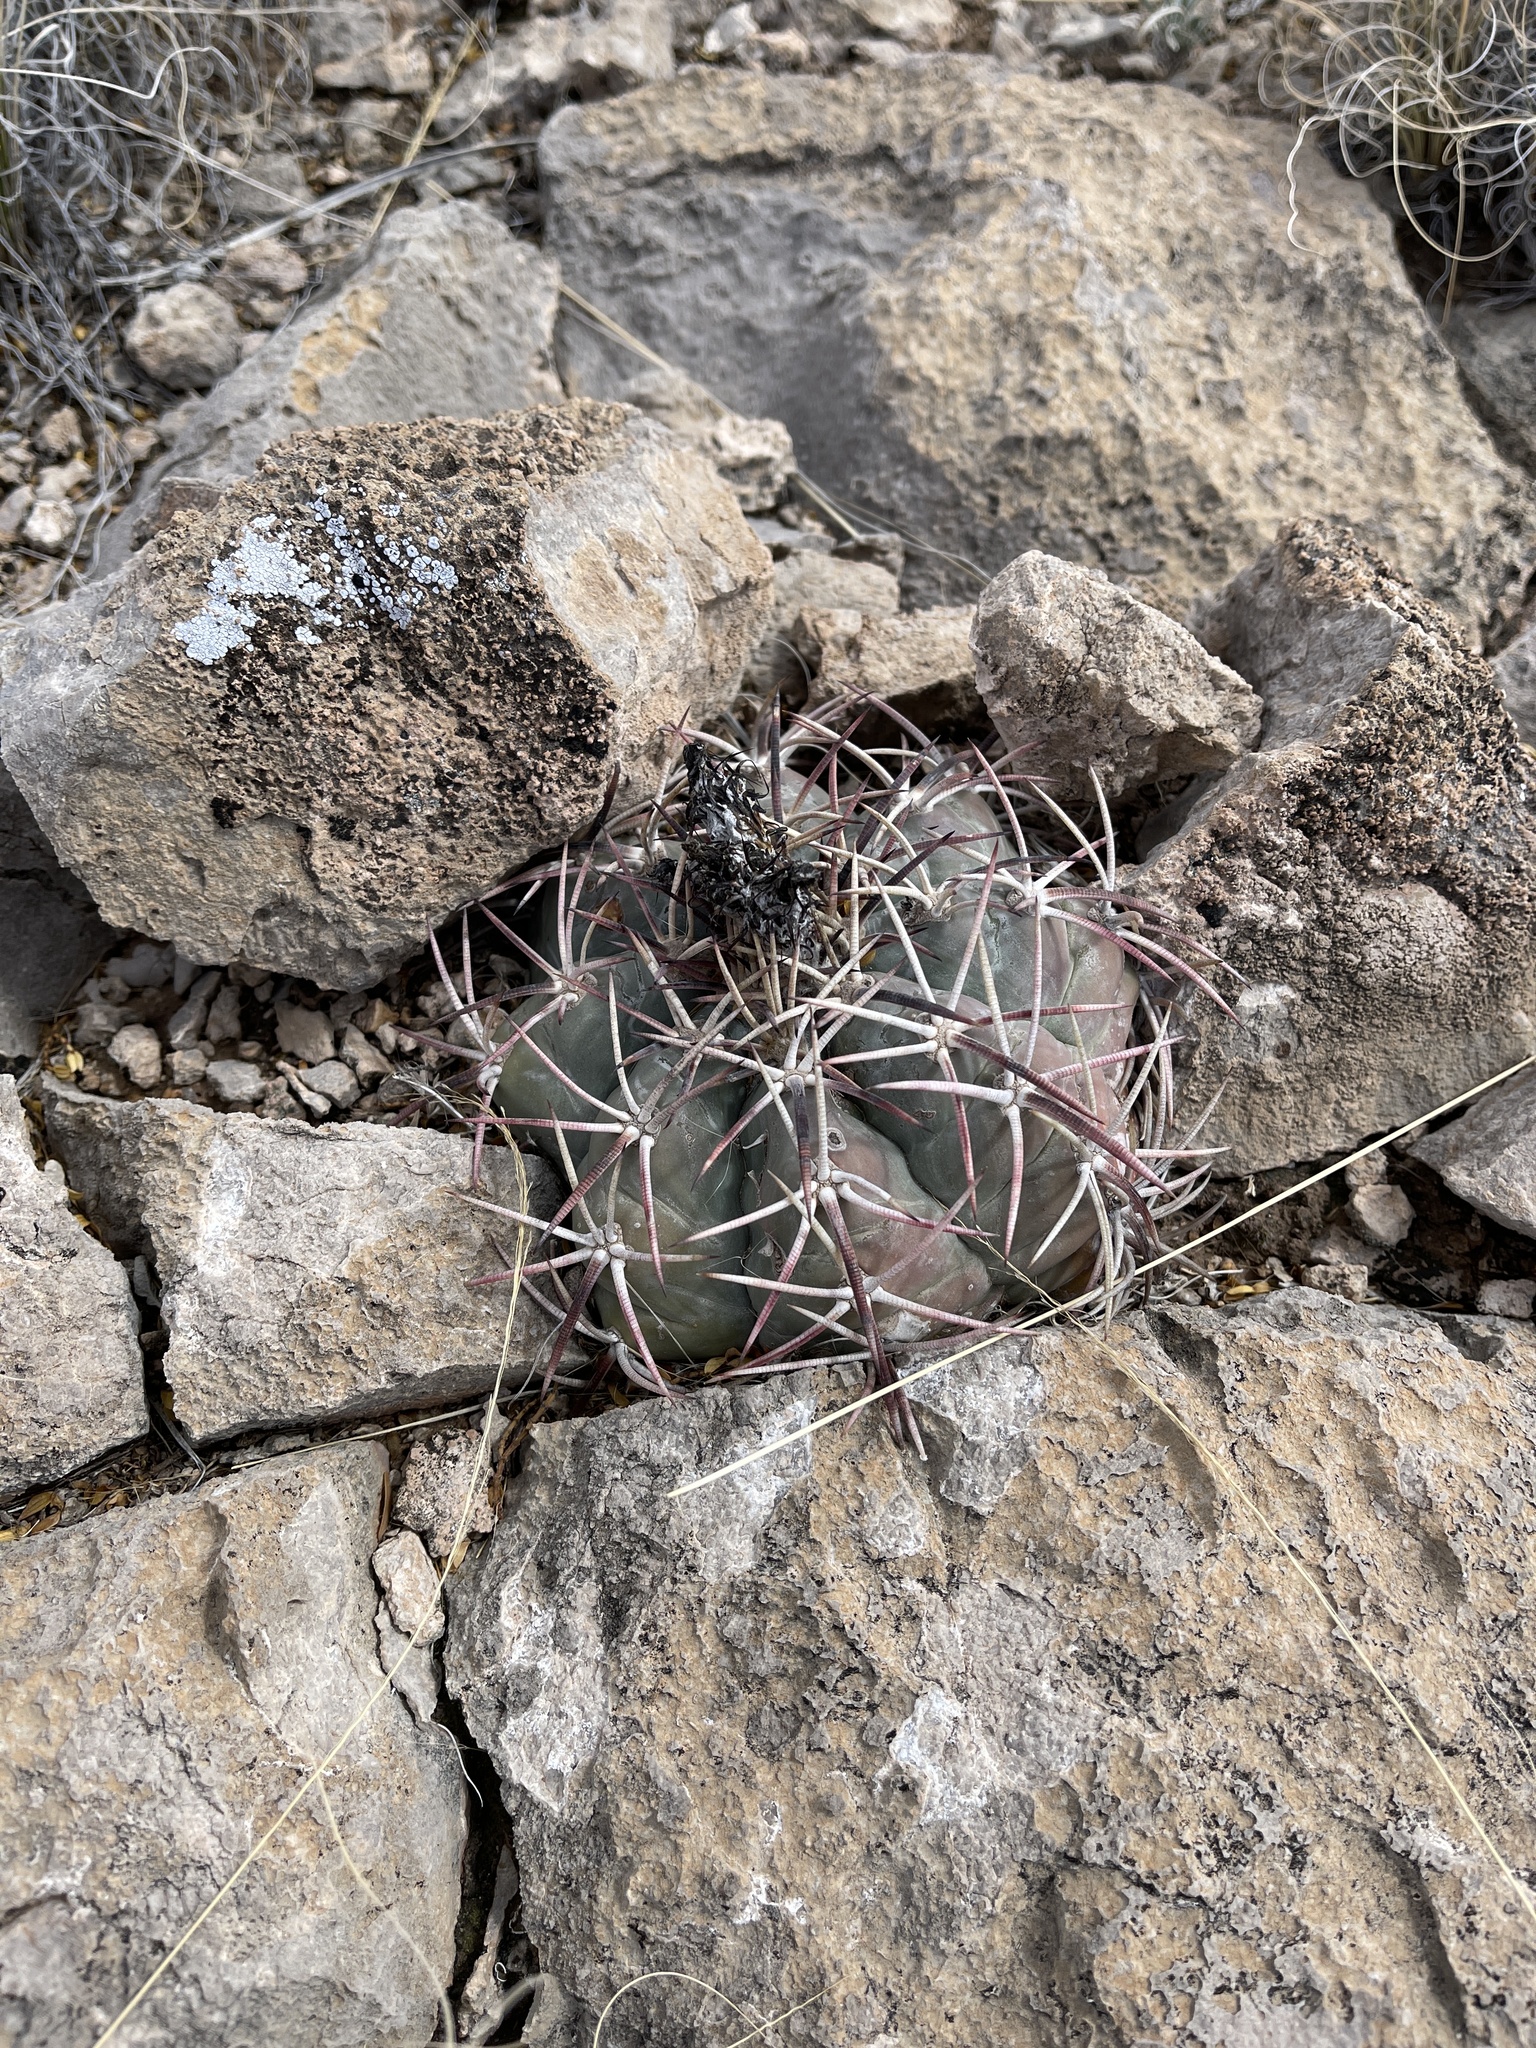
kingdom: Plantae
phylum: Tracheophyta
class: Magnoliopsida
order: Caryophyllales
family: Cactaceae
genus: Echinocactus
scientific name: Echinocactus horizonthalonius
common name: Devilshead
